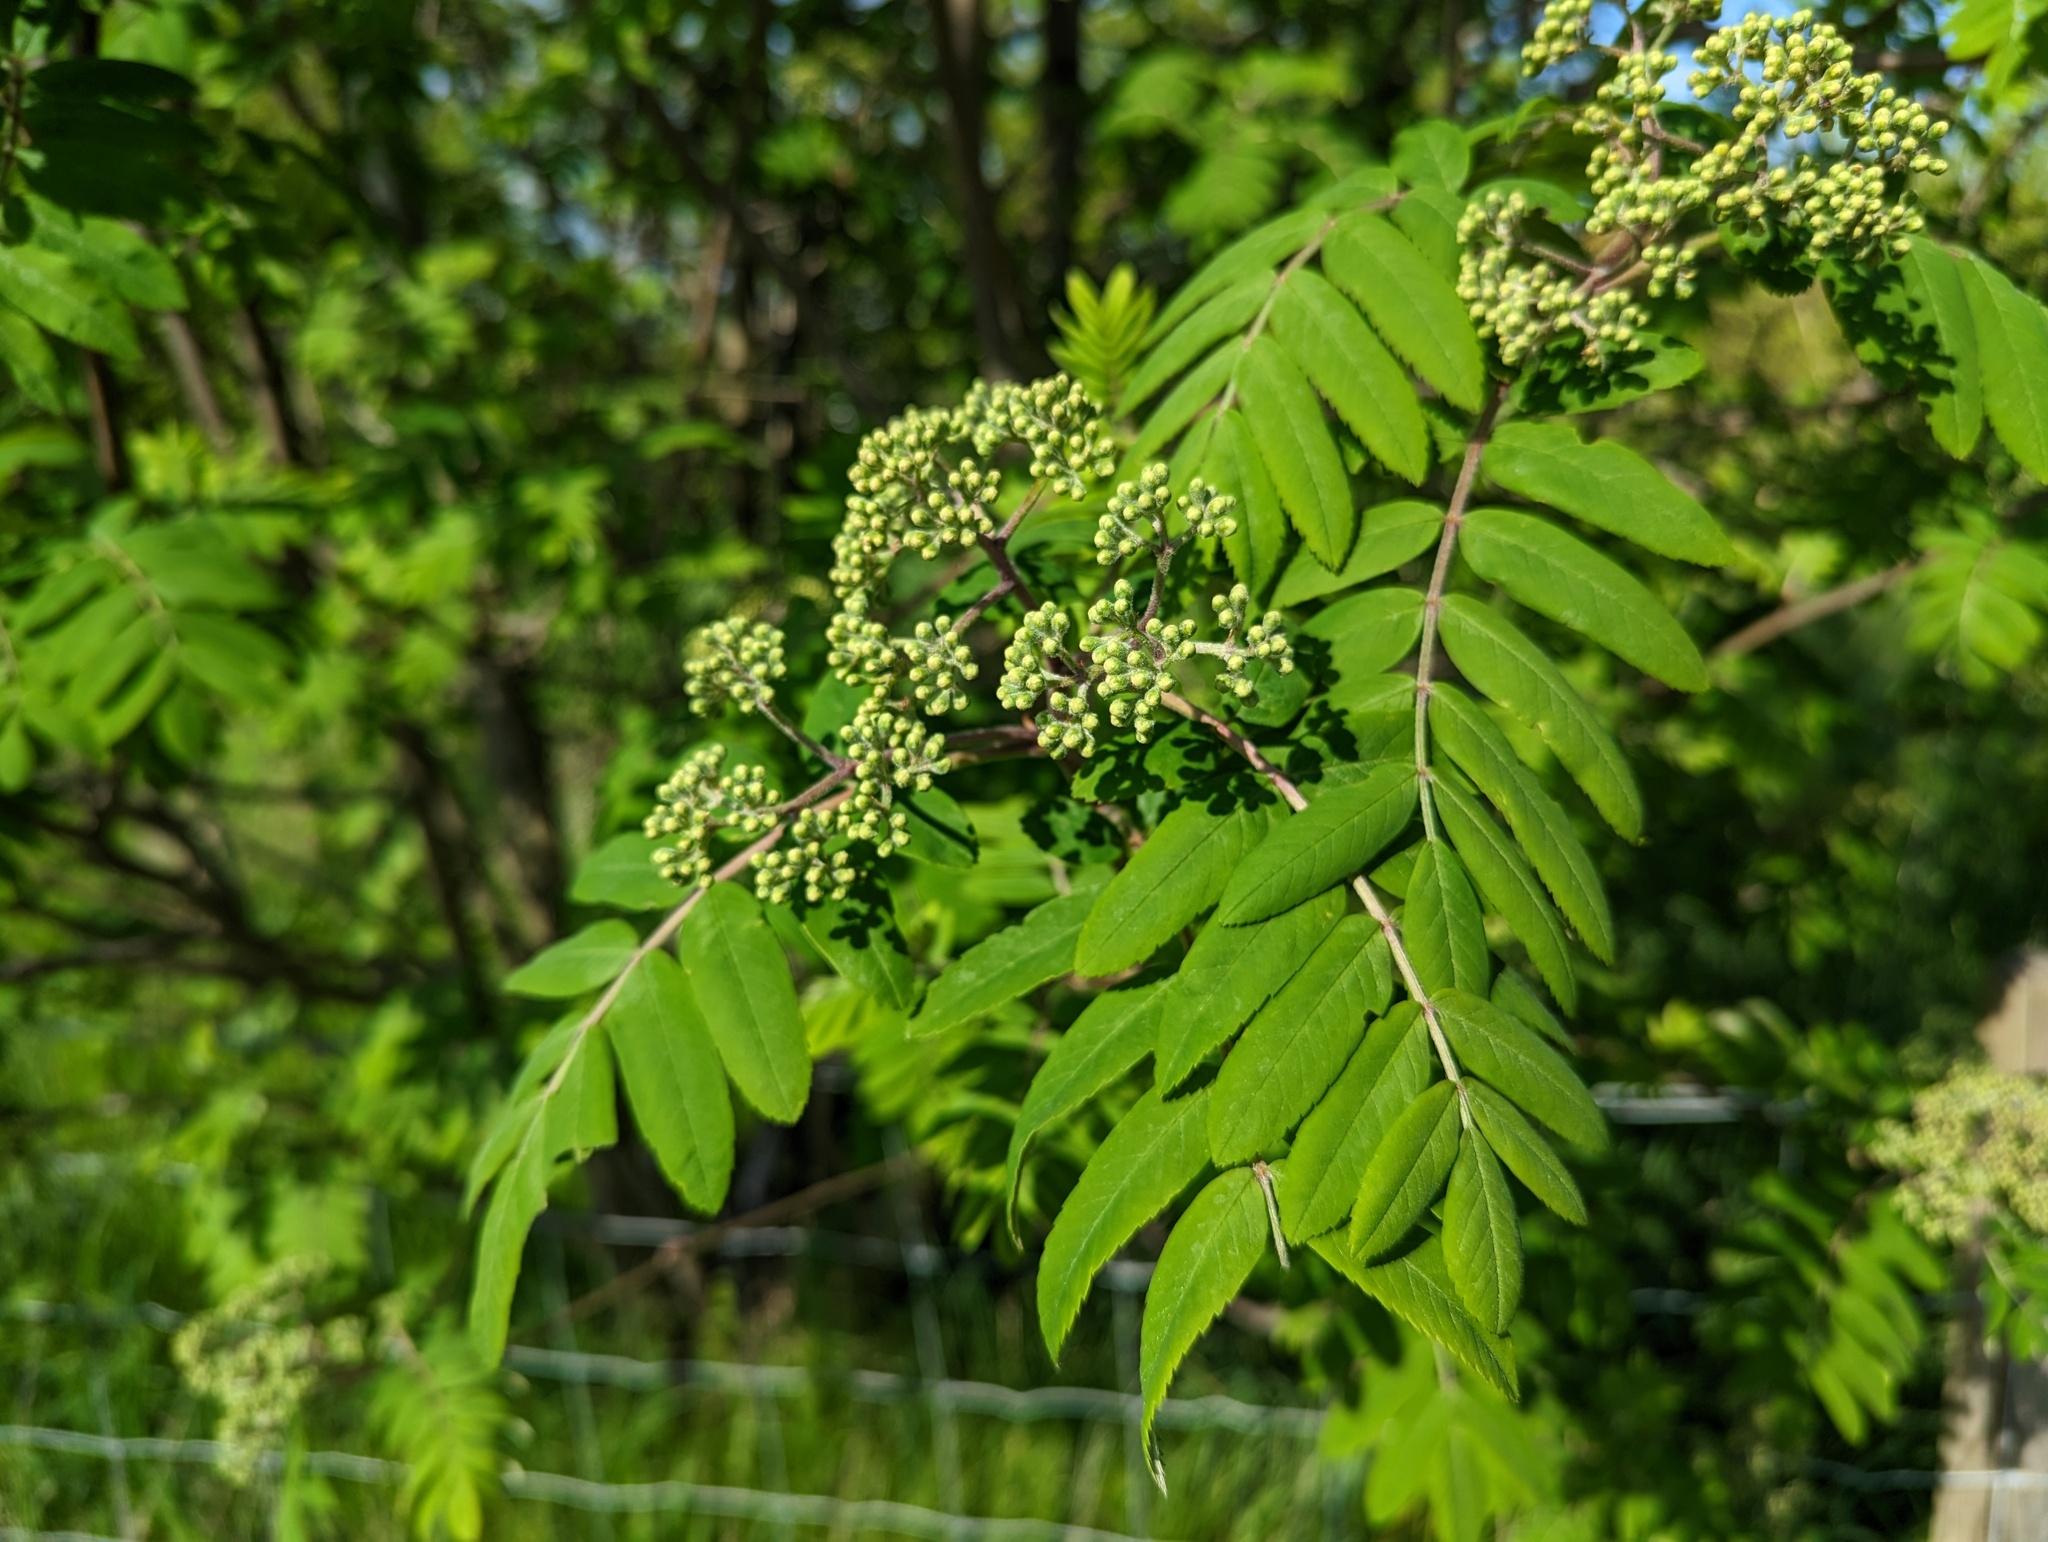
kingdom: Plantae
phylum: Tracheophyta
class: Magnoliopsida
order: Rosales
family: Rosaceae
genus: Sorbus
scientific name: Sorbus aucuparia
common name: Rowan
